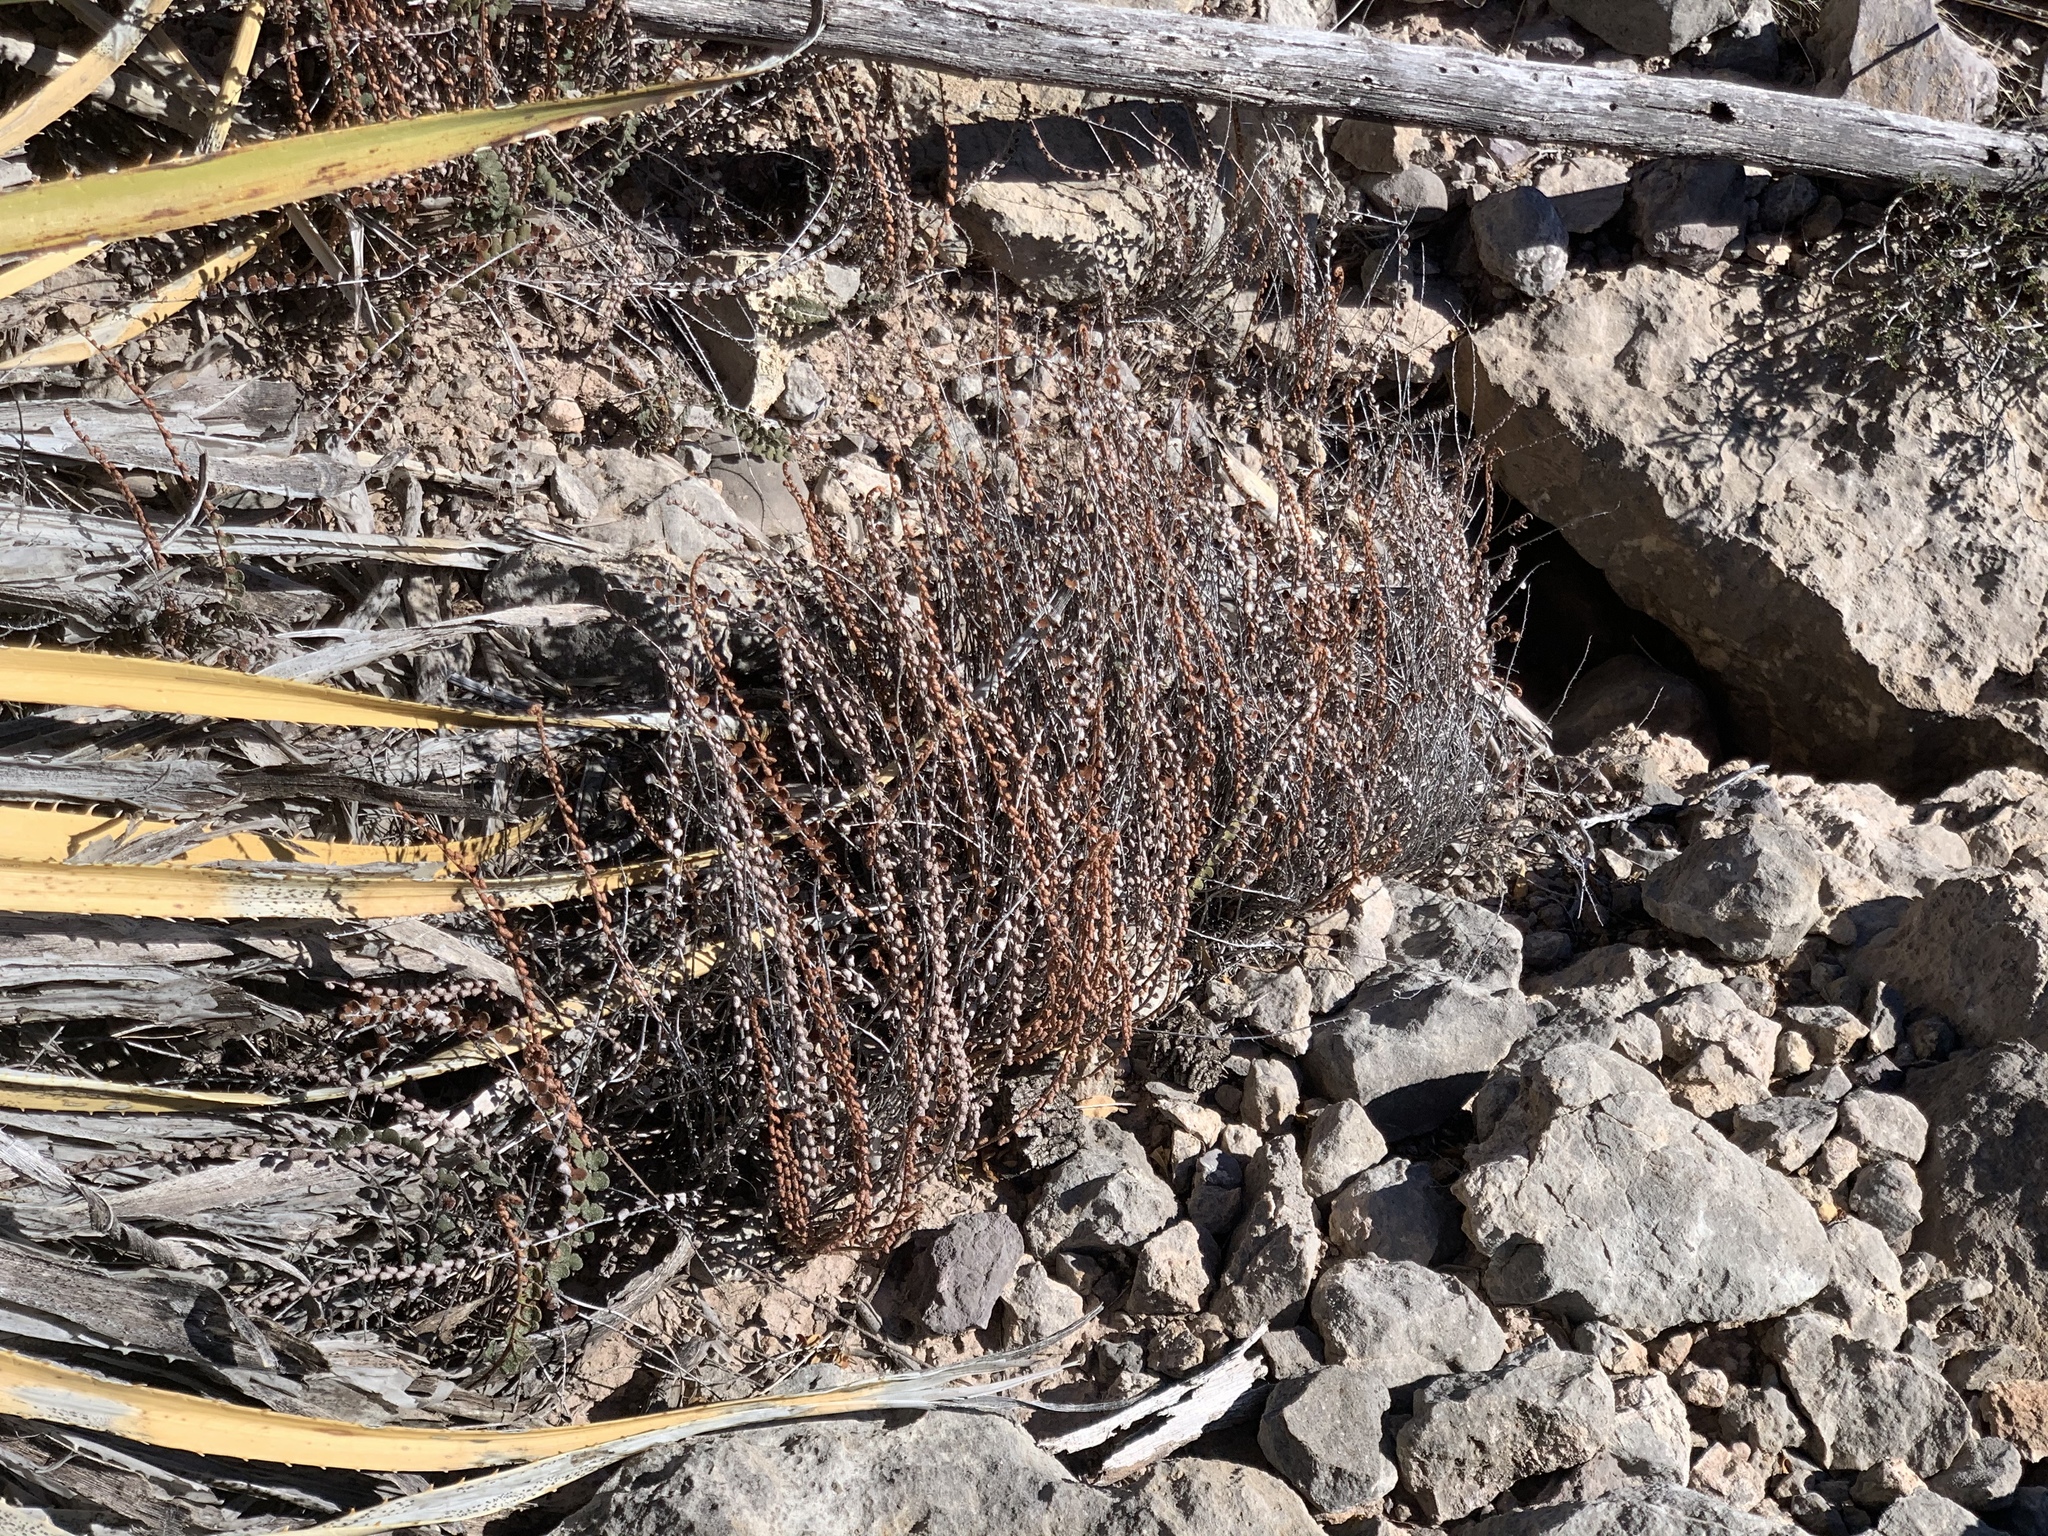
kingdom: Plantae
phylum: Tracheophyta
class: Polypodiopsida
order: Polypodiales
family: Pteridaceae
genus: Astrolepis
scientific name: Astrolepis cochisensis
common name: Scaly cloak fern
